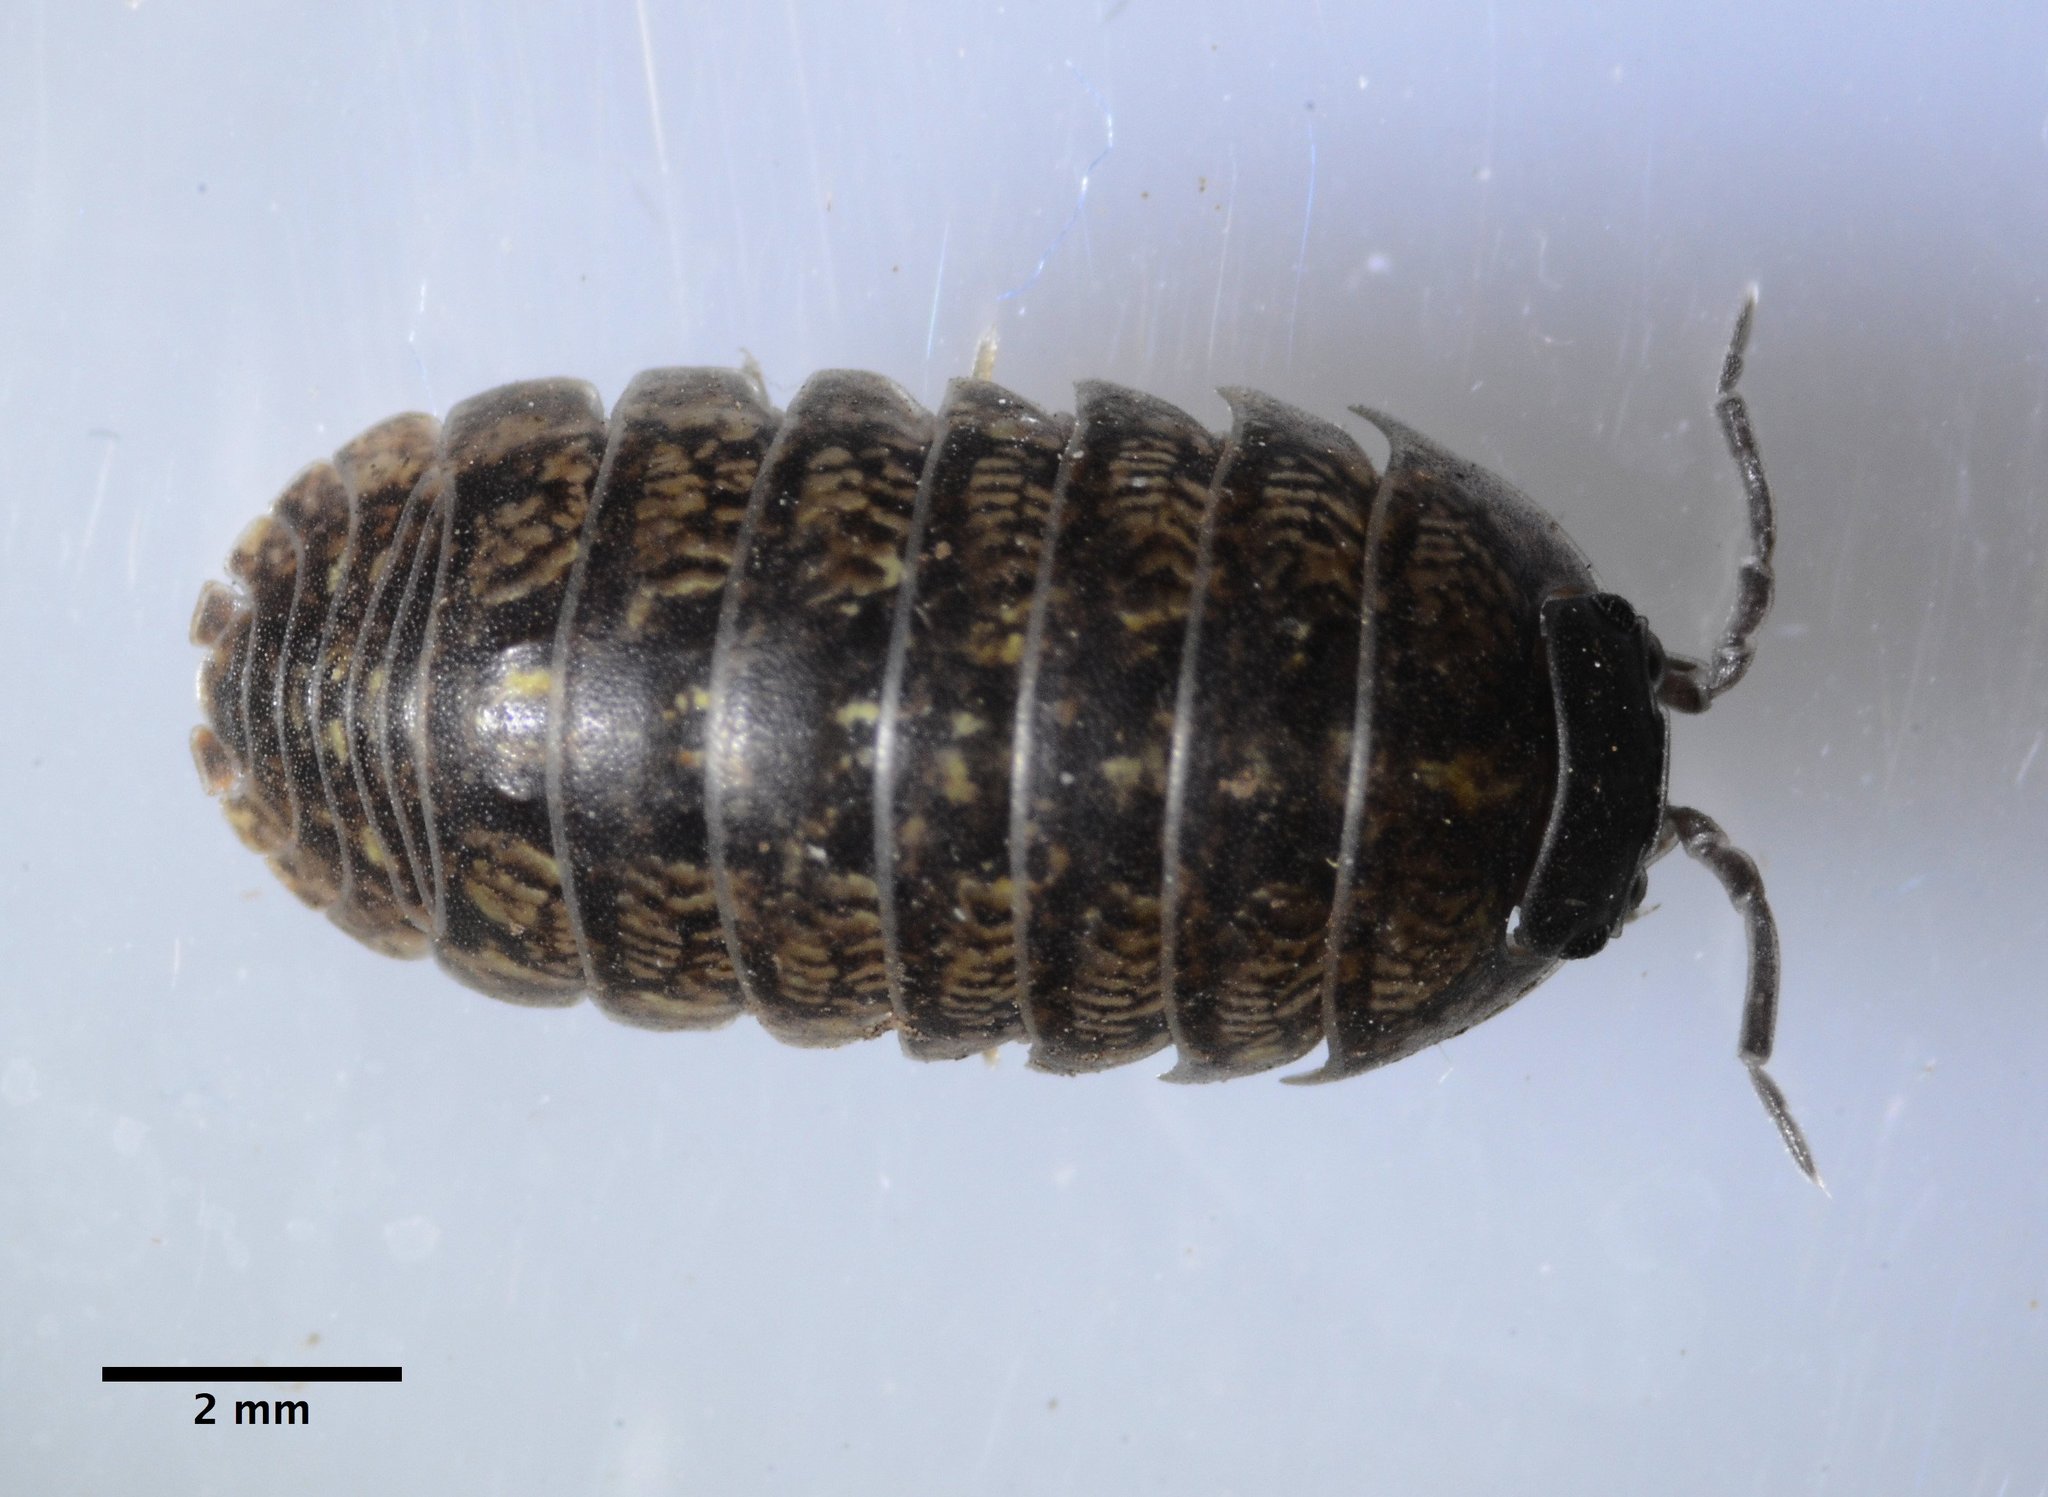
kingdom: Animalia
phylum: Arthropoda
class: Malacostraca
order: Isopoda
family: Armadillidiidae
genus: Armadillidium
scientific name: Armadillidium vulgare
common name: Common pill woodlouse
